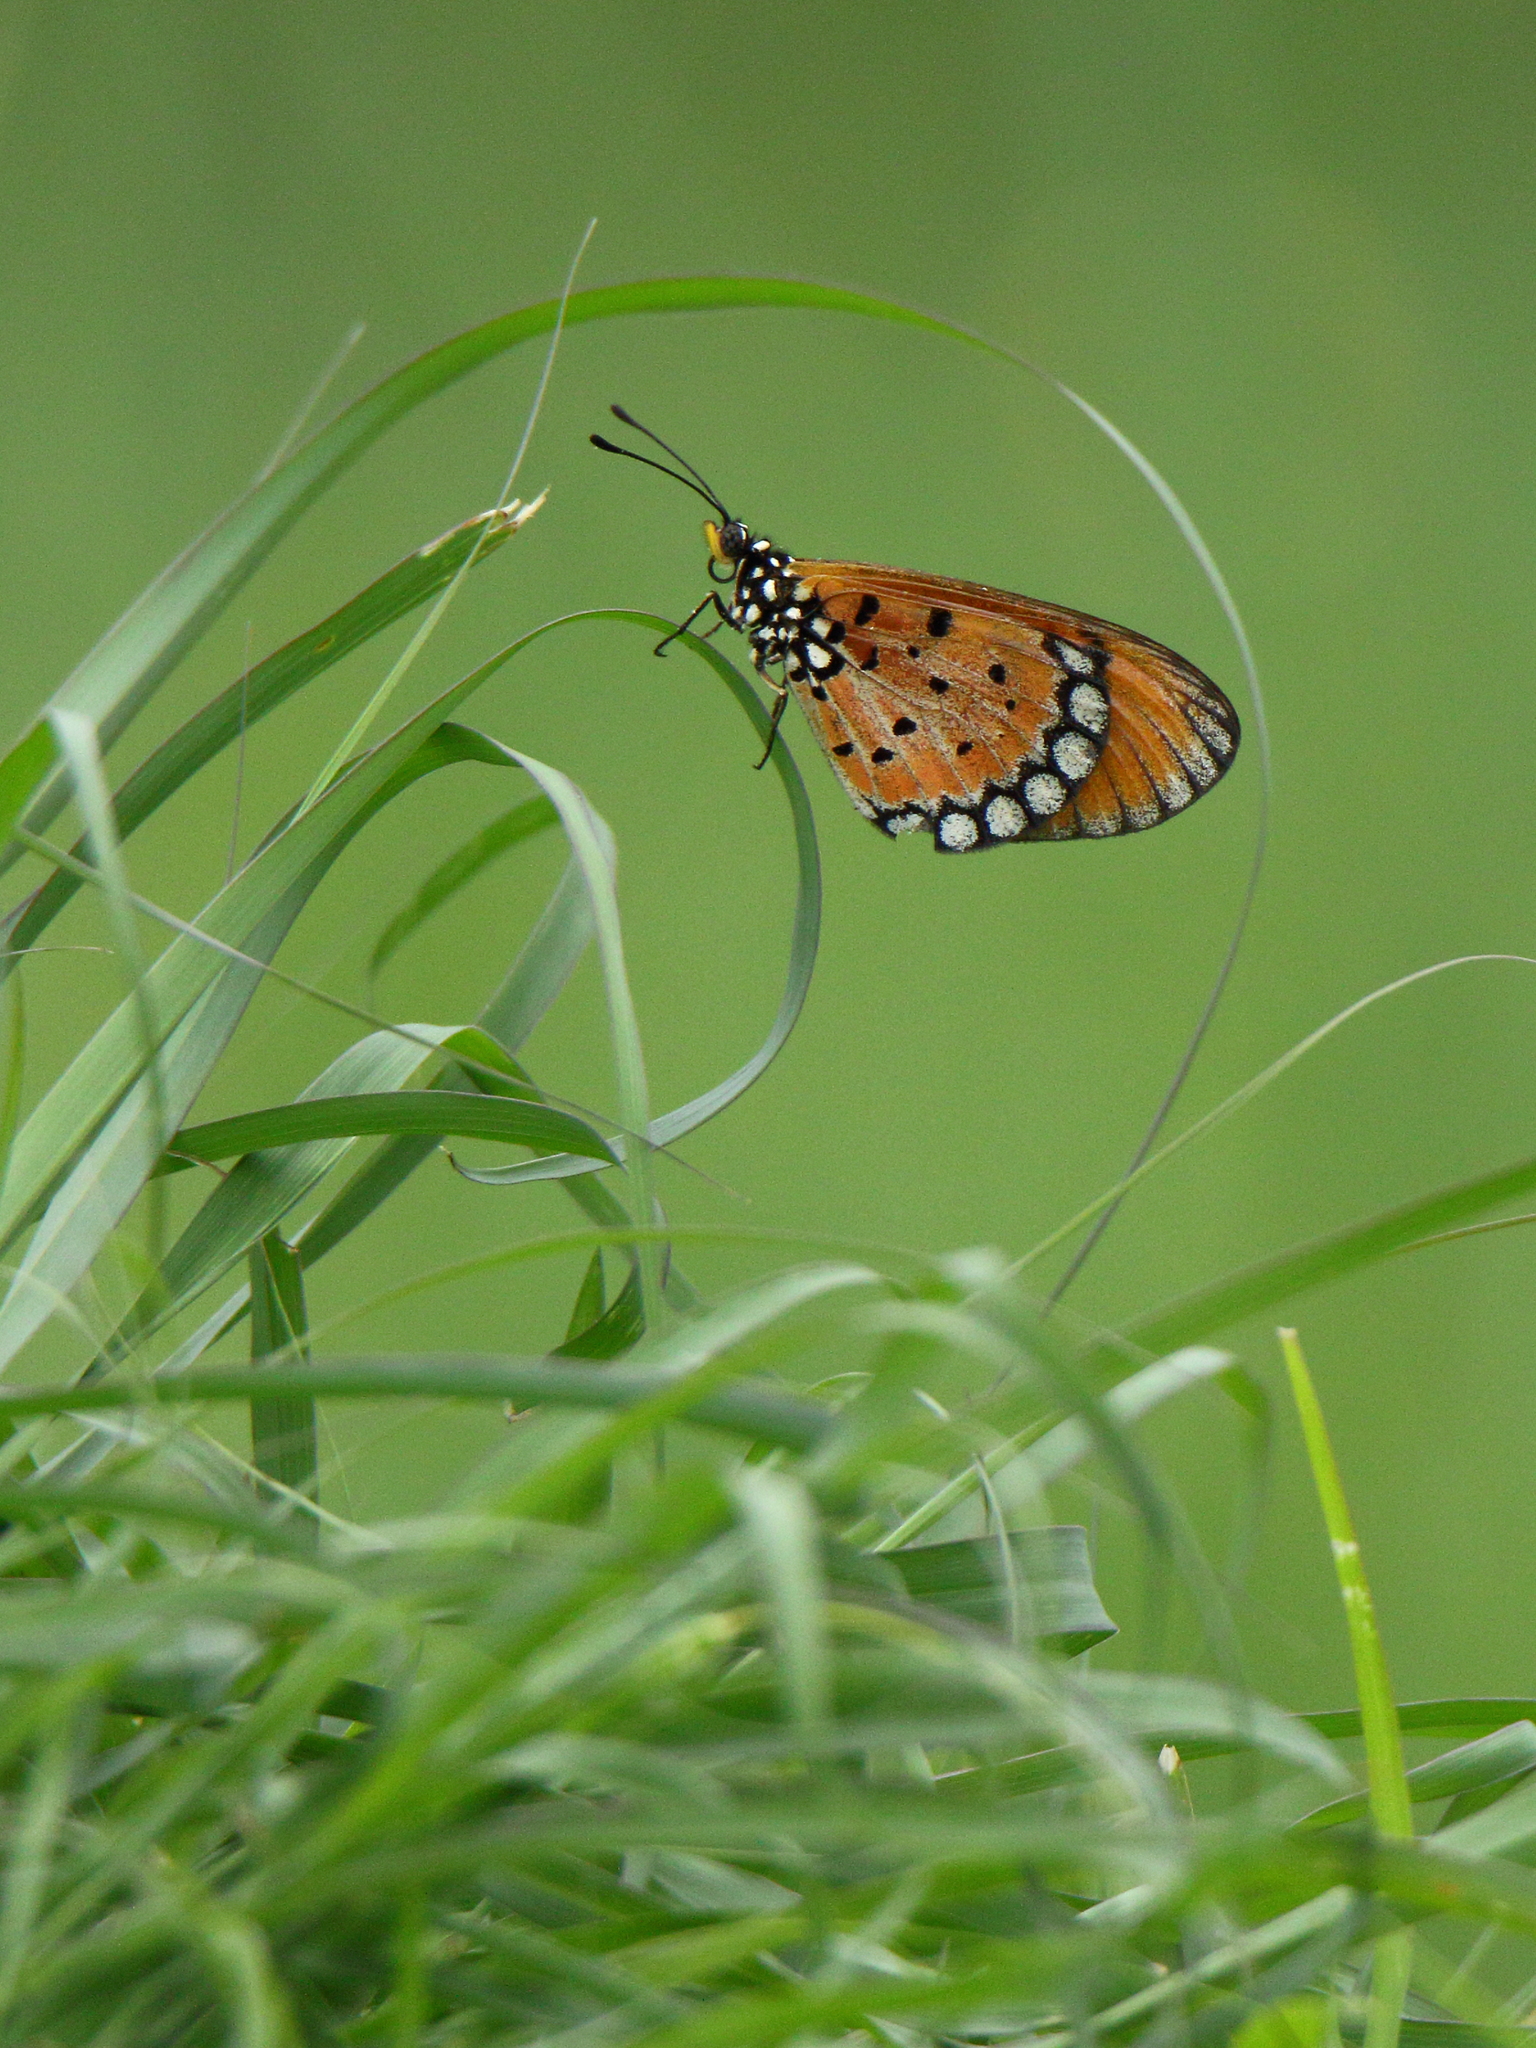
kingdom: Animalia
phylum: Arthropoda
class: Insecta
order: Lepidoptera
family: Nymphalidae
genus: Acraea
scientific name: Acraea terpsicore
